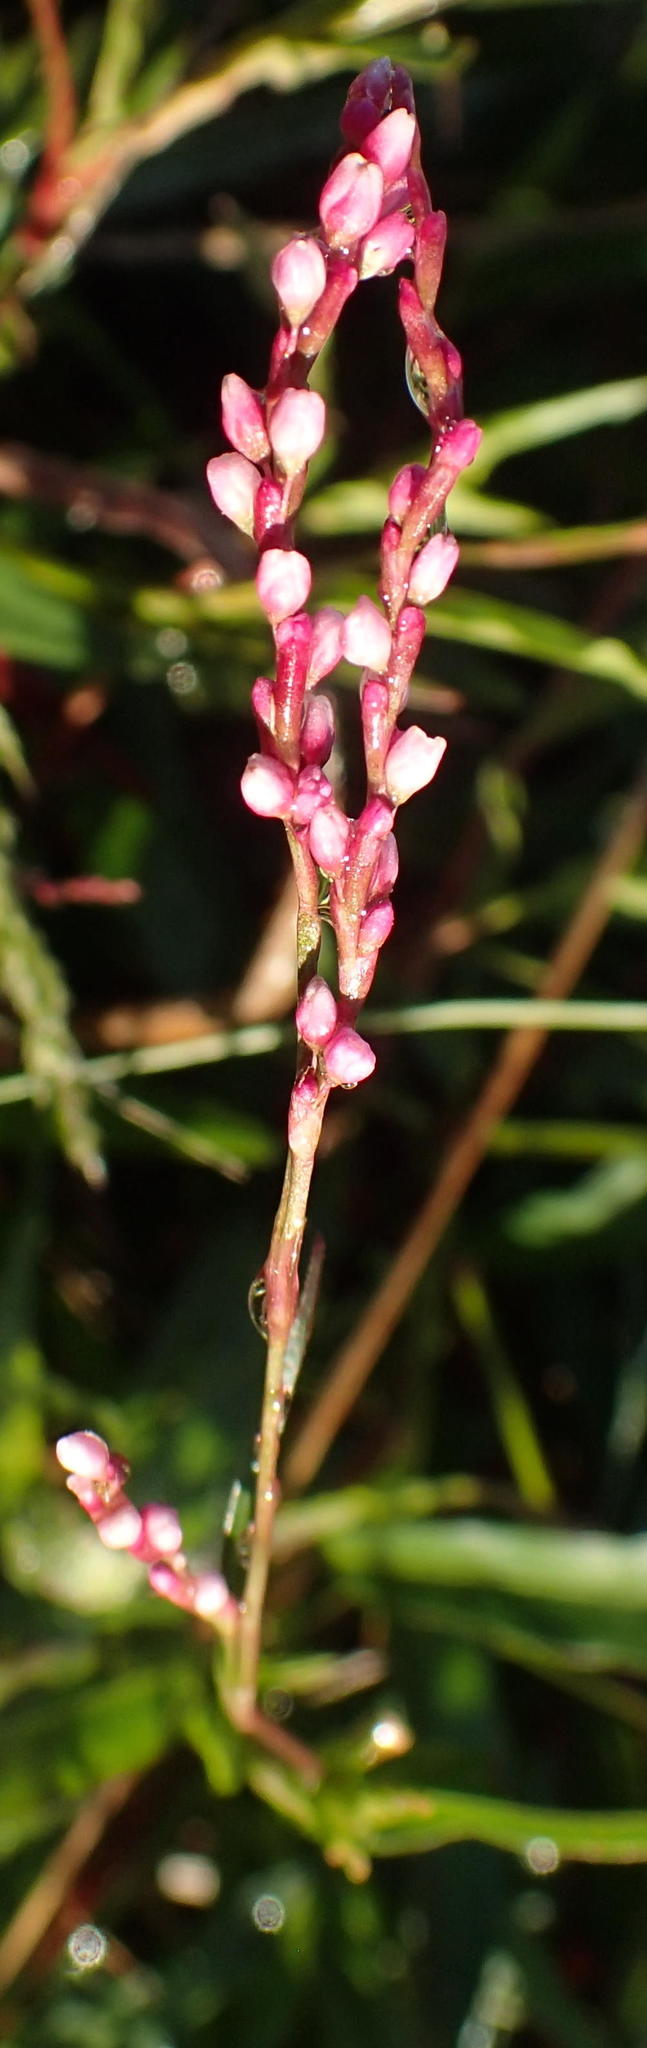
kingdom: Plantae
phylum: Tracheophyta
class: Magnoliopsida
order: Caryophyllales
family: Polygonaceae
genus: Persicaria
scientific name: Persicaria decipiens
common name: Willow-weed
